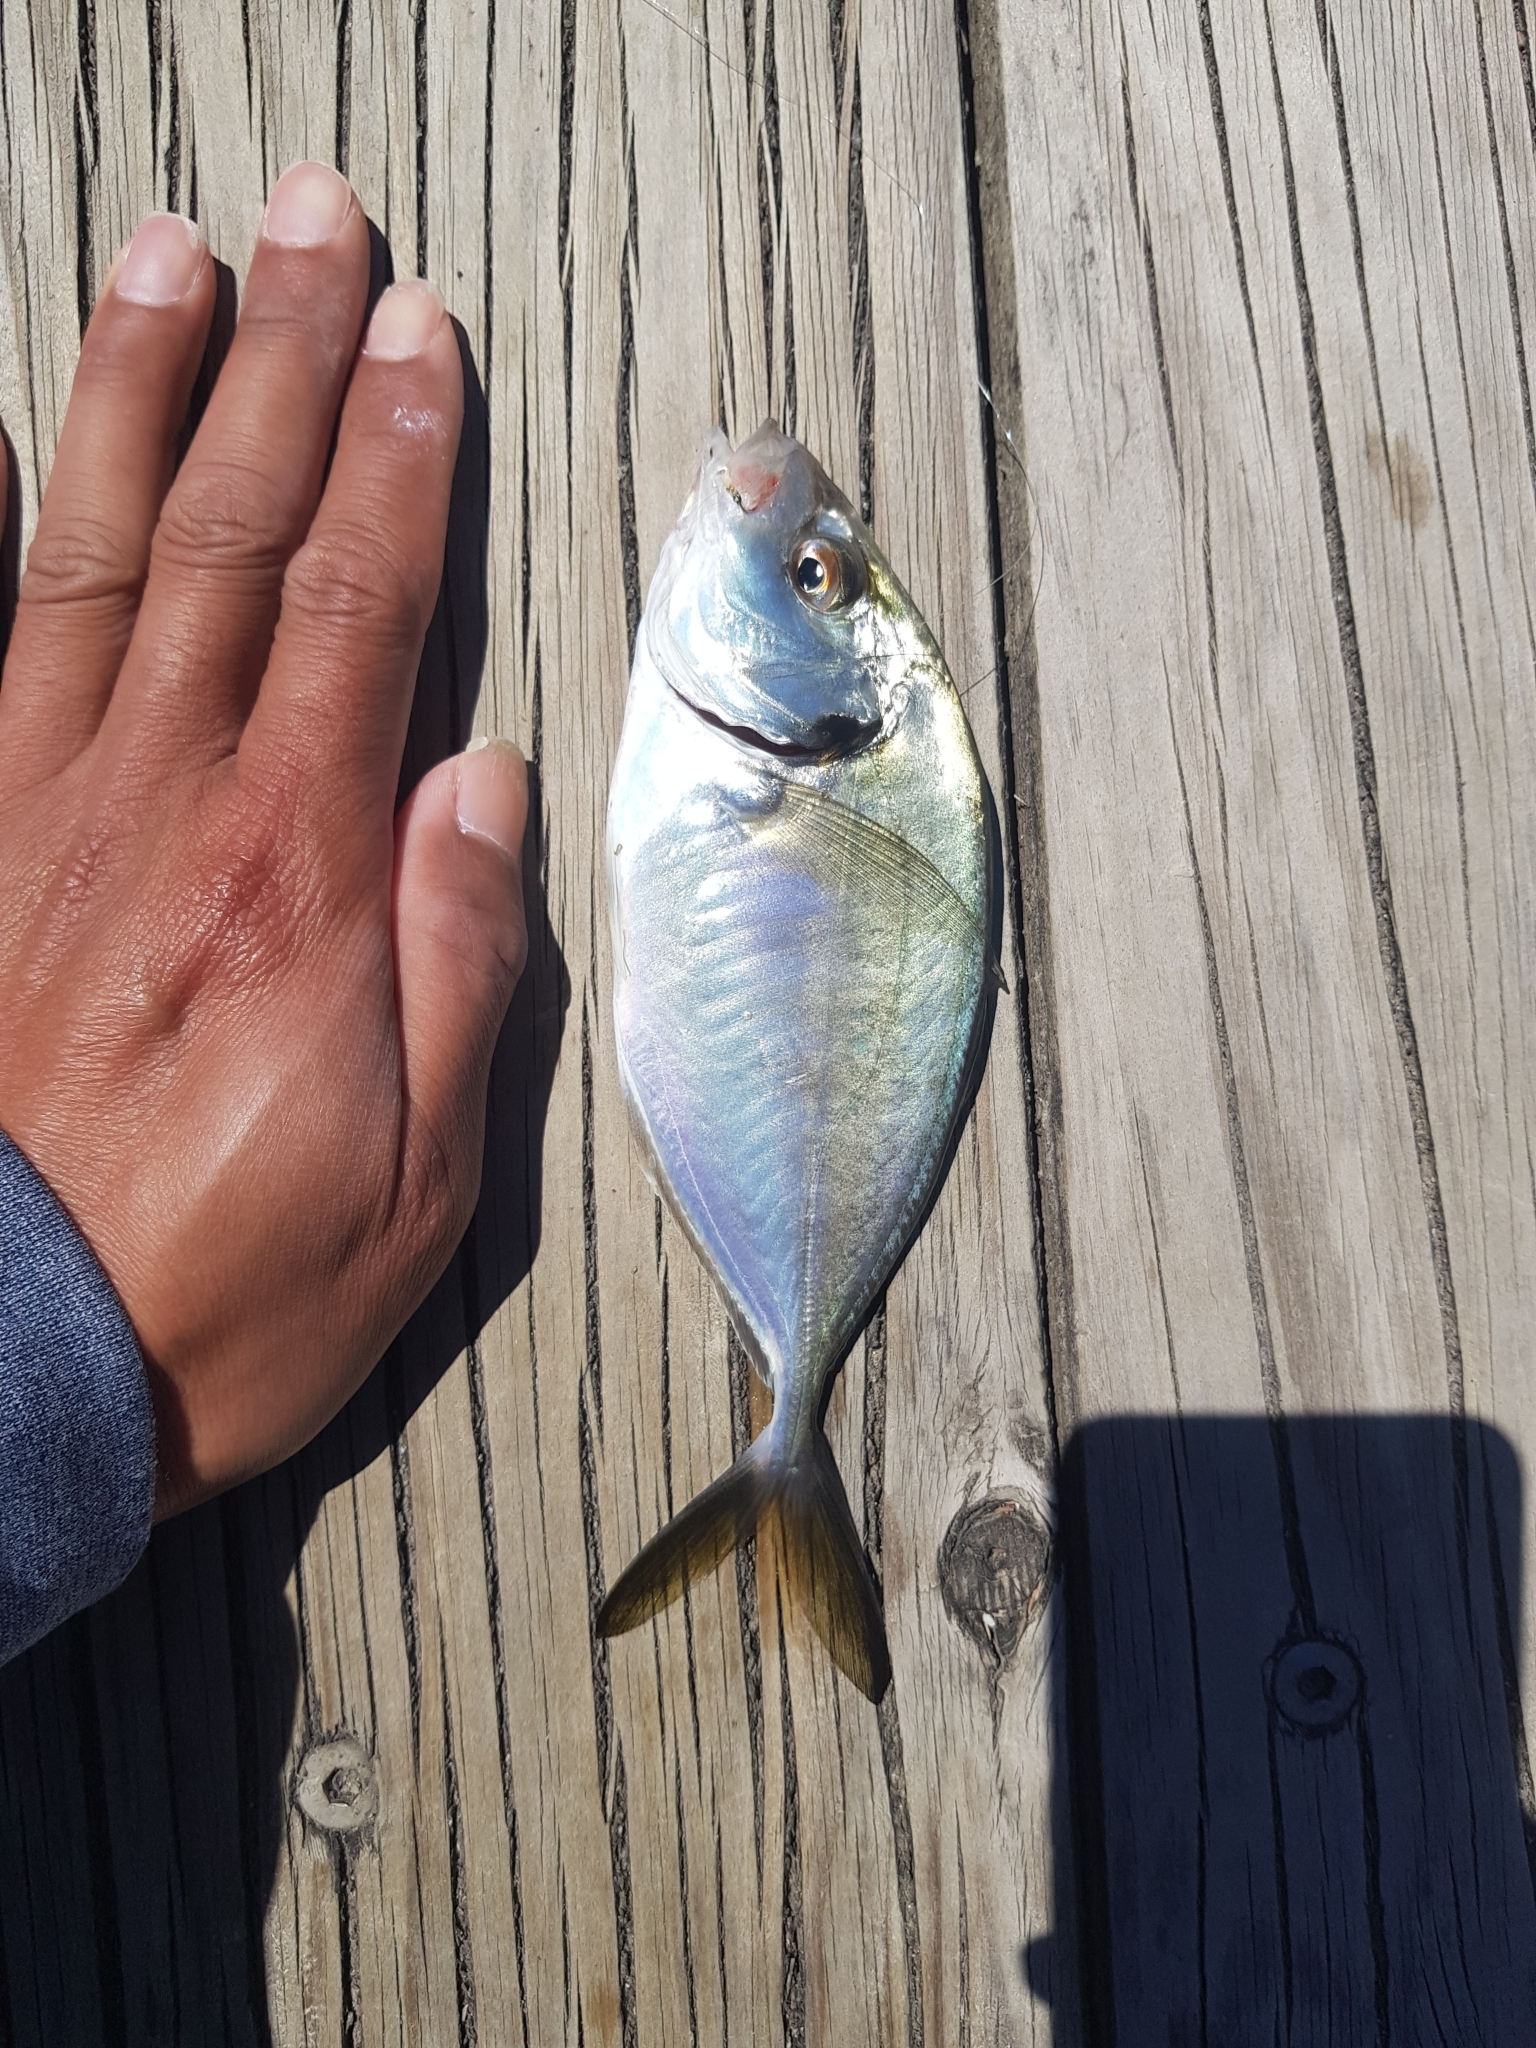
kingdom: Animalia
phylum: Chordata
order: Perciformes
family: Carangidae
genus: Pseudocaranx
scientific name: Pseudocaranx dentex
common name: White trevally
